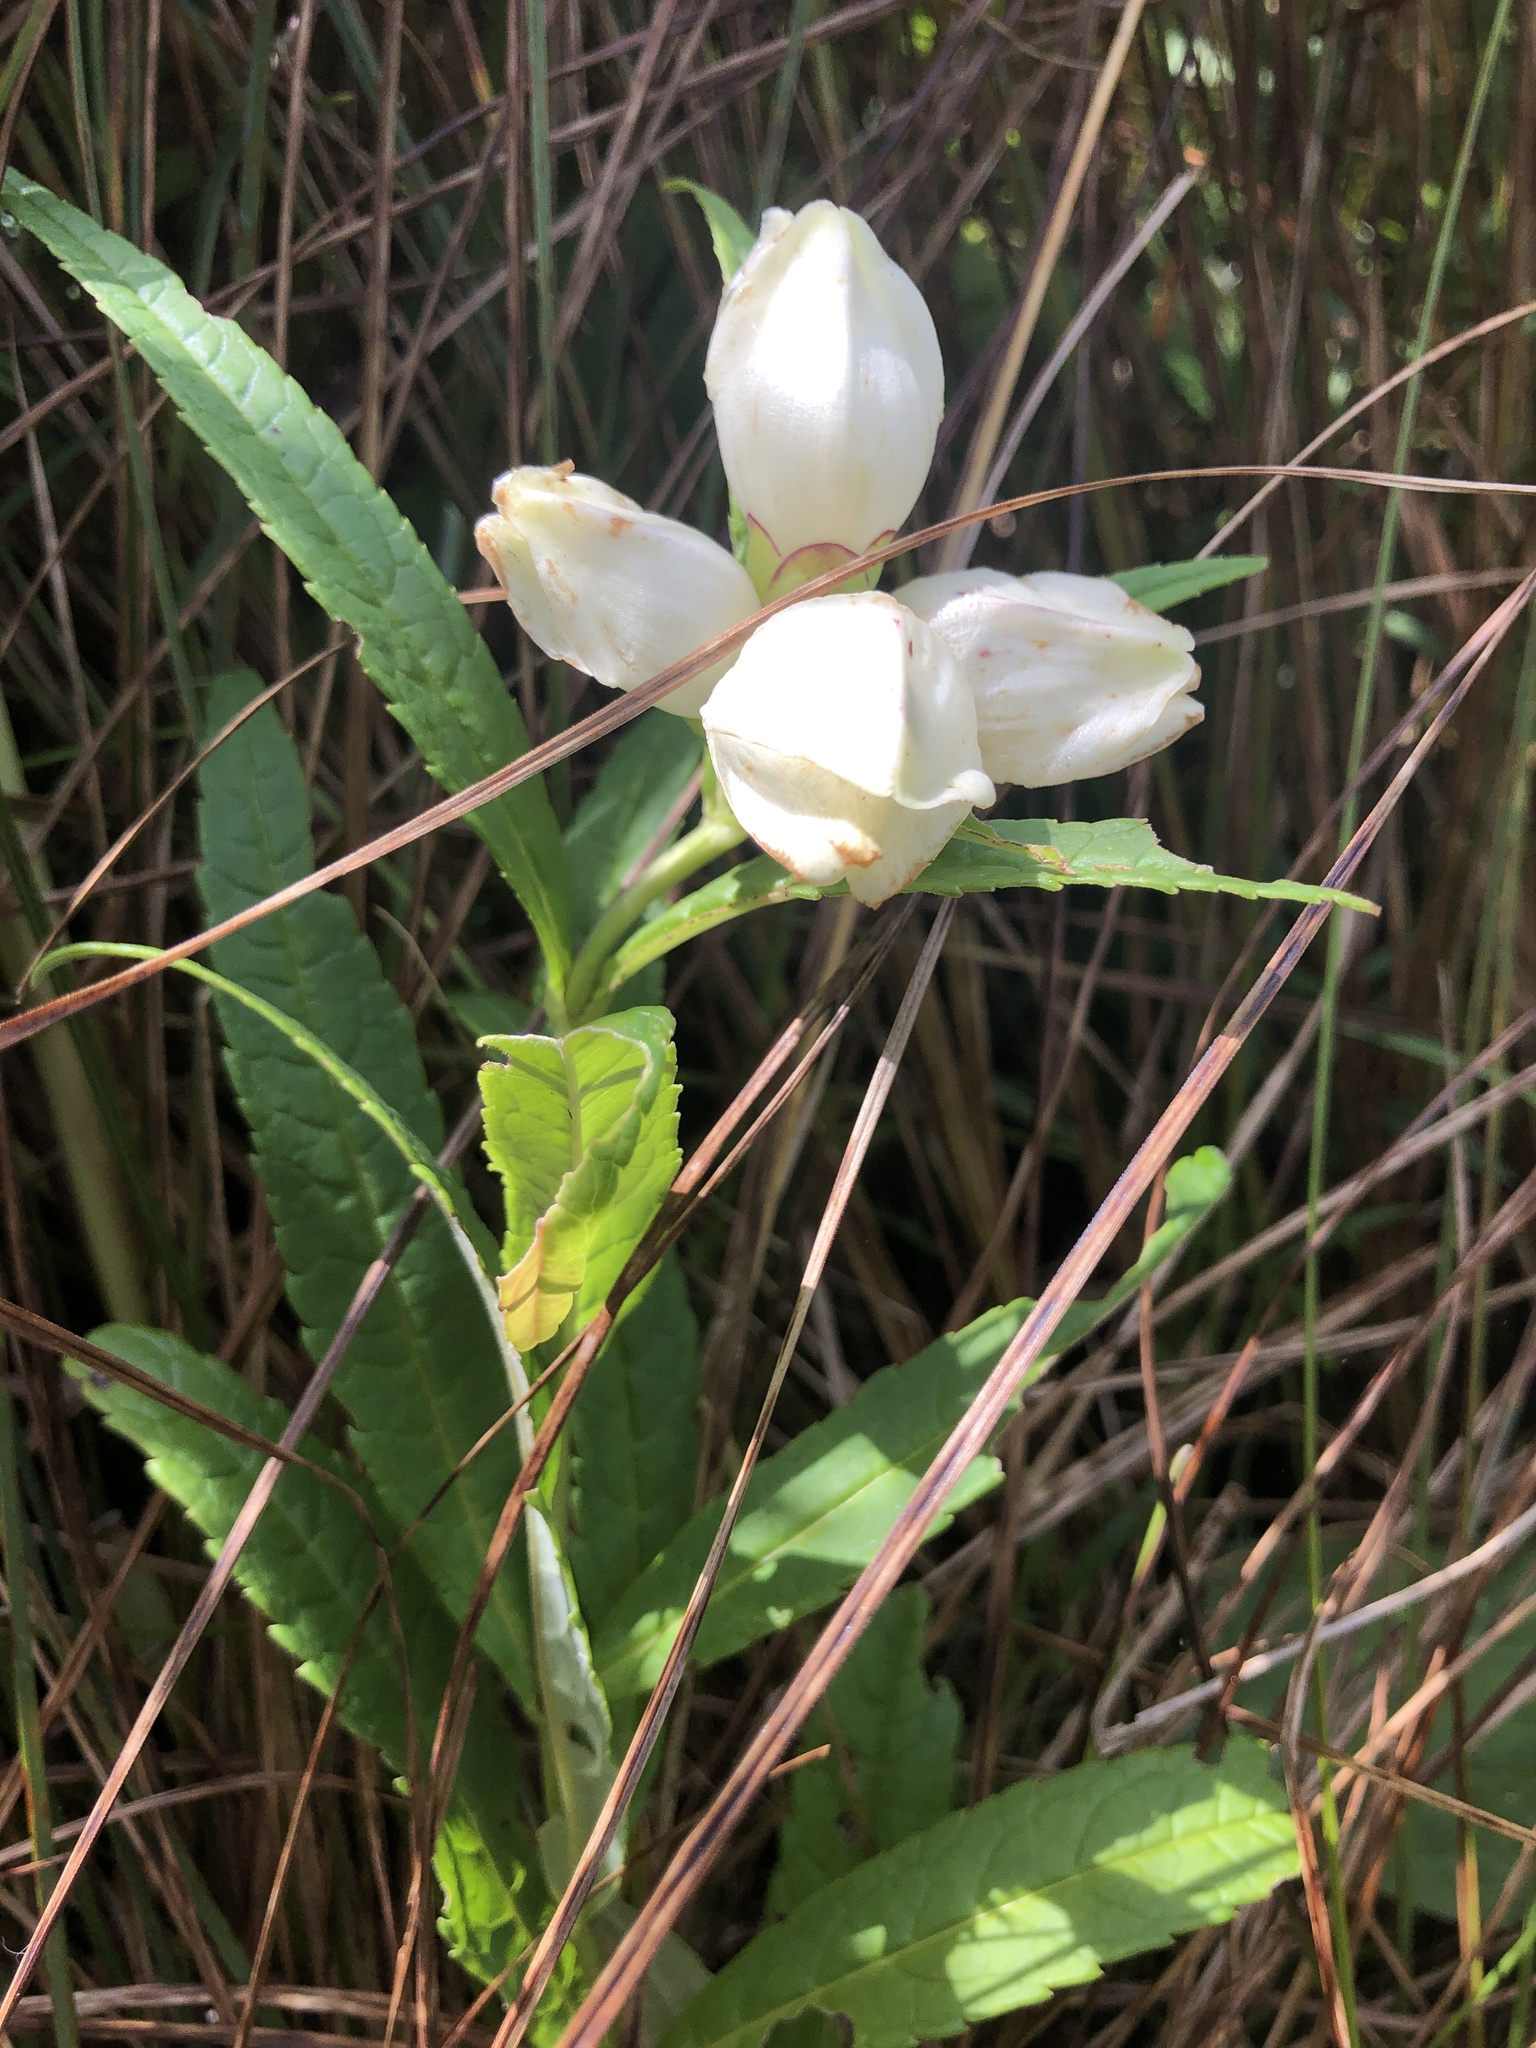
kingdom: Plantae
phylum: Tracheophyta
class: Magnoliopsida
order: Lamiales
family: Plantaginaceae
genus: Chelone
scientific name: Chelone glabra
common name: Snakehead
